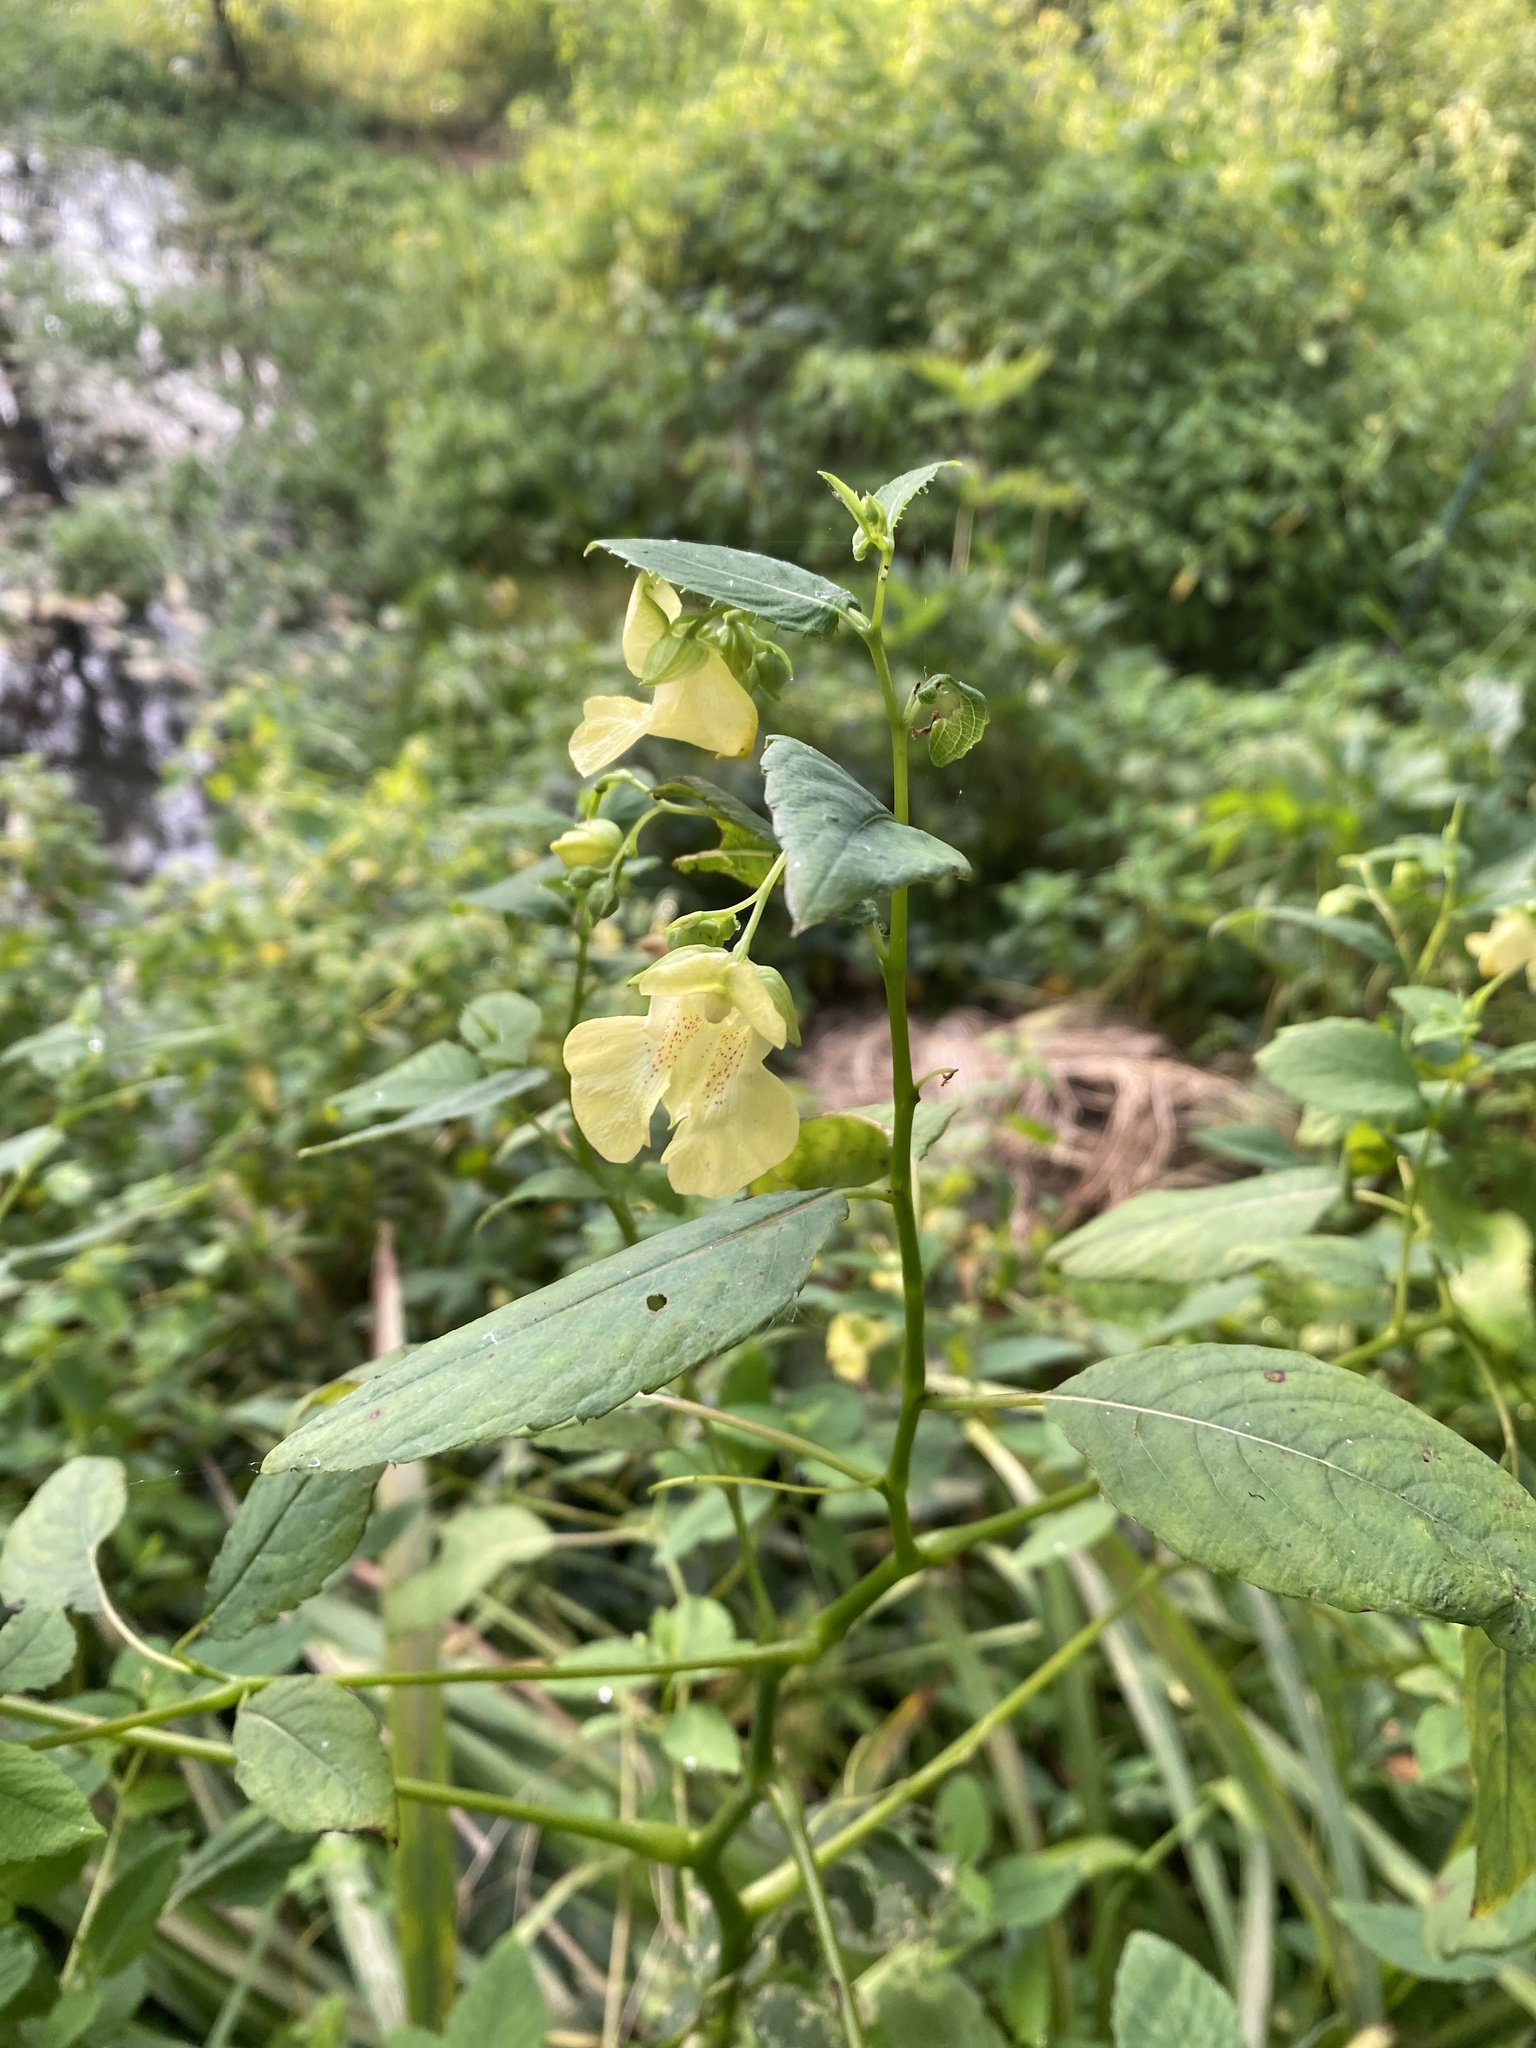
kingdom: Plantae
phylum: Tracheophyta
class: Magnoliopsida
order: Ericales
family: Balsaminaceae
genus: Impatiens
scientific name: Impatiens pallida
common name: Pale snapweed
